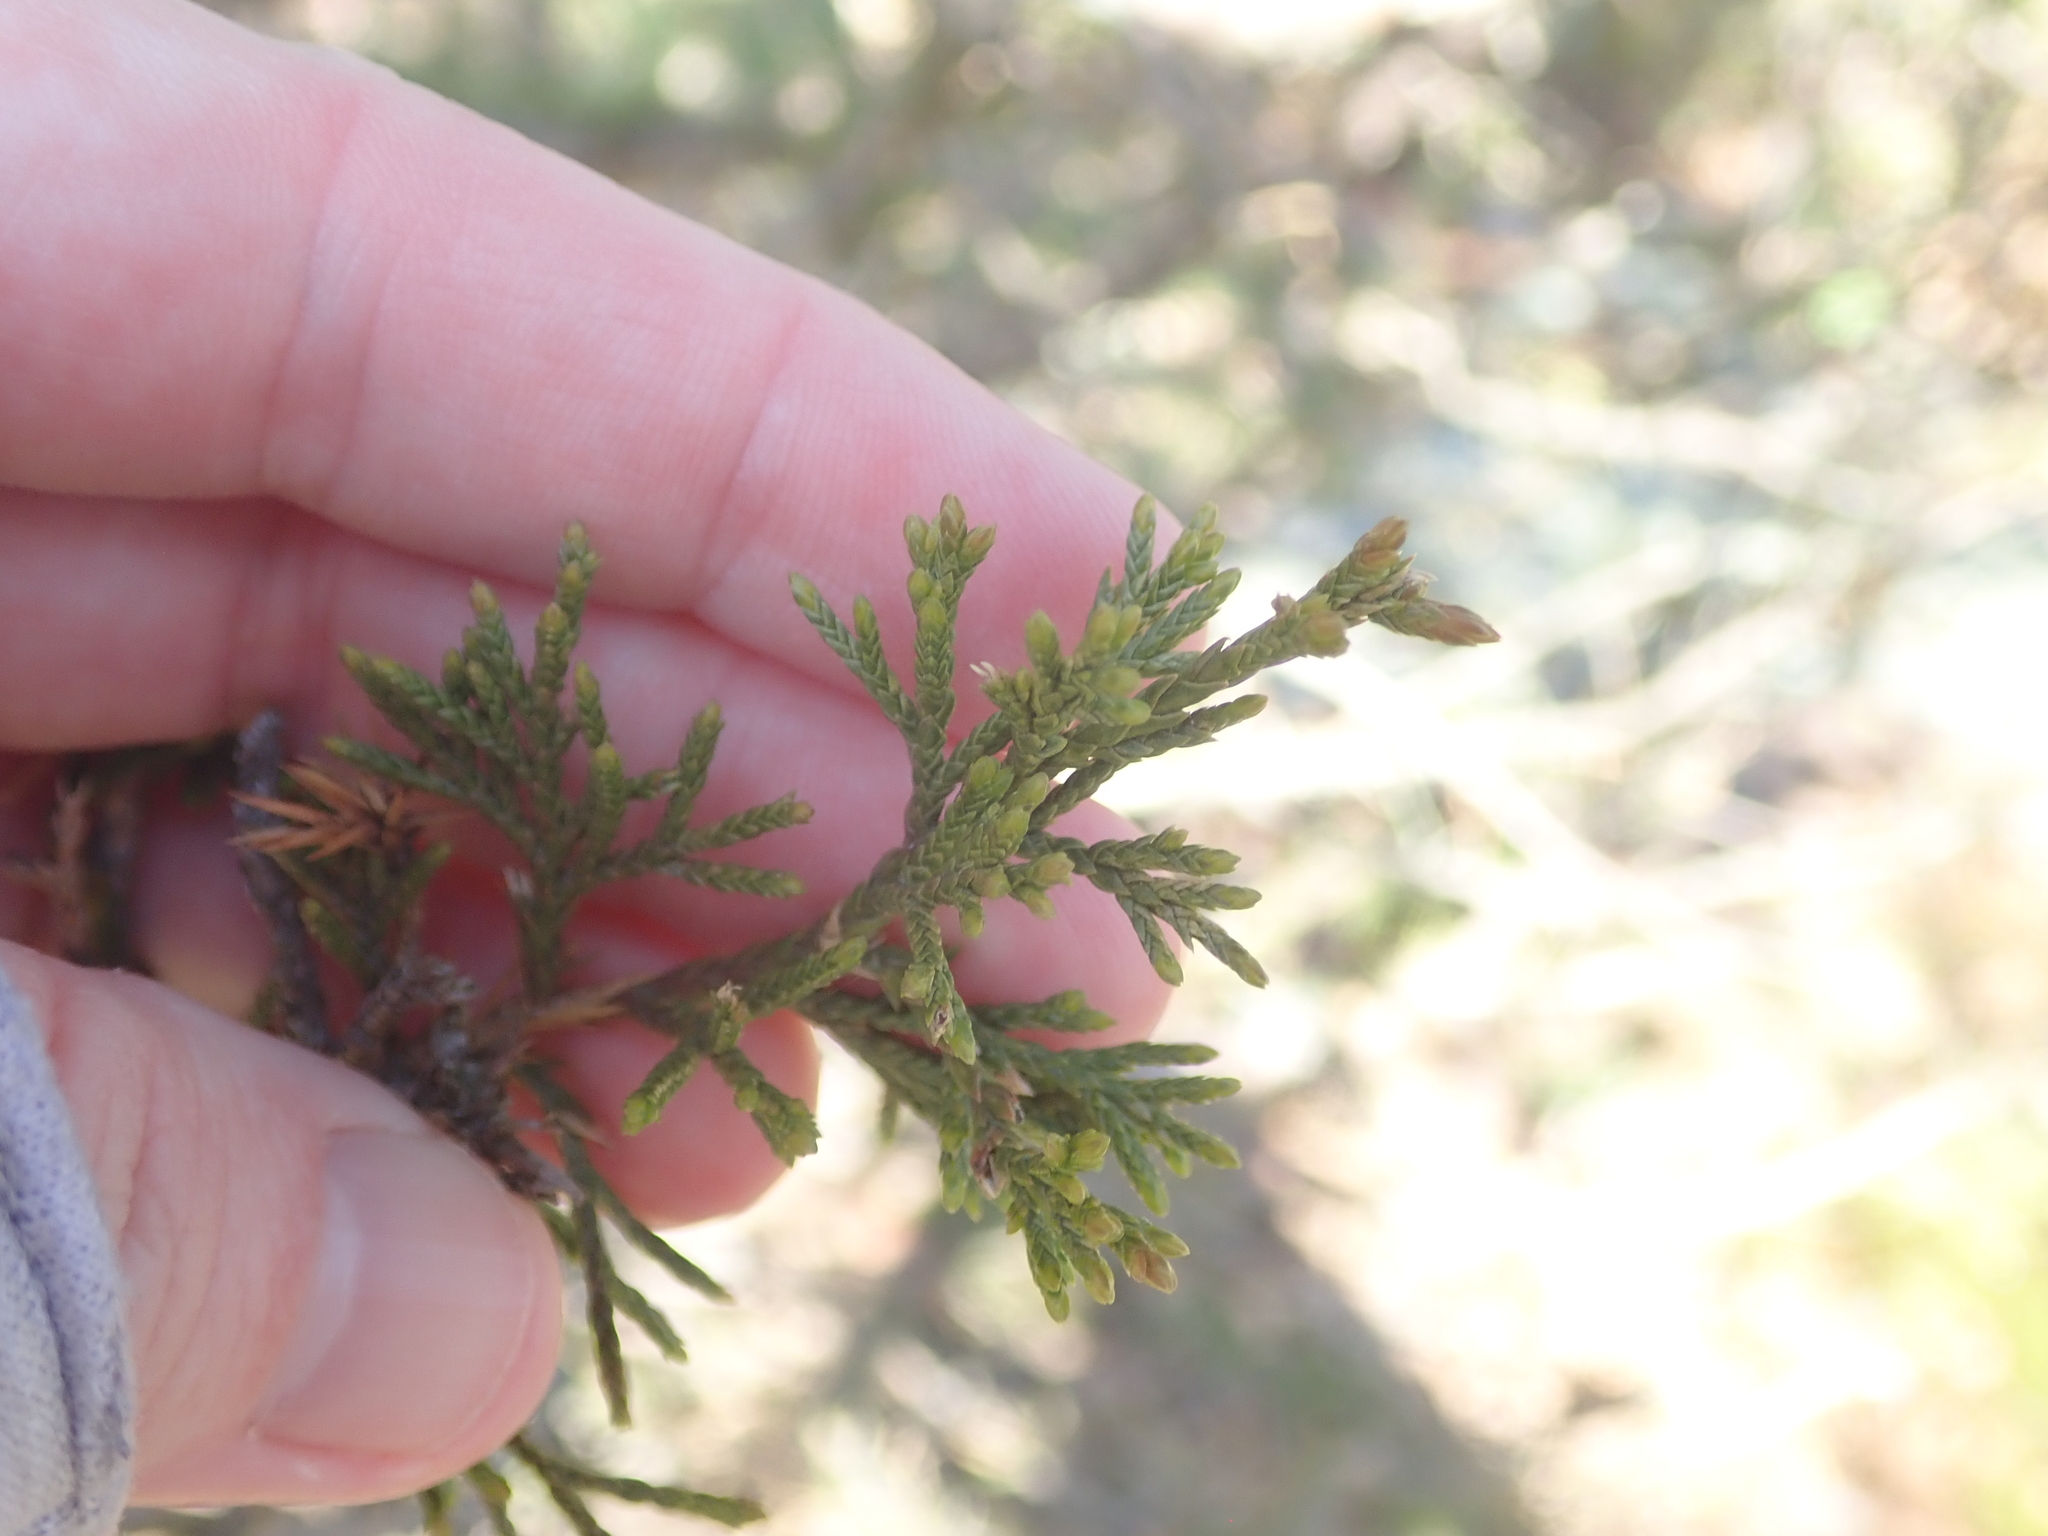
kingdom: Plantae
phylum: Tracheophyta
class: Pinopsida
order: Pinales
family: Cupressaceae
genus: Juniperus
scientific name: Juniperus virginiana
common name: Red juniper
